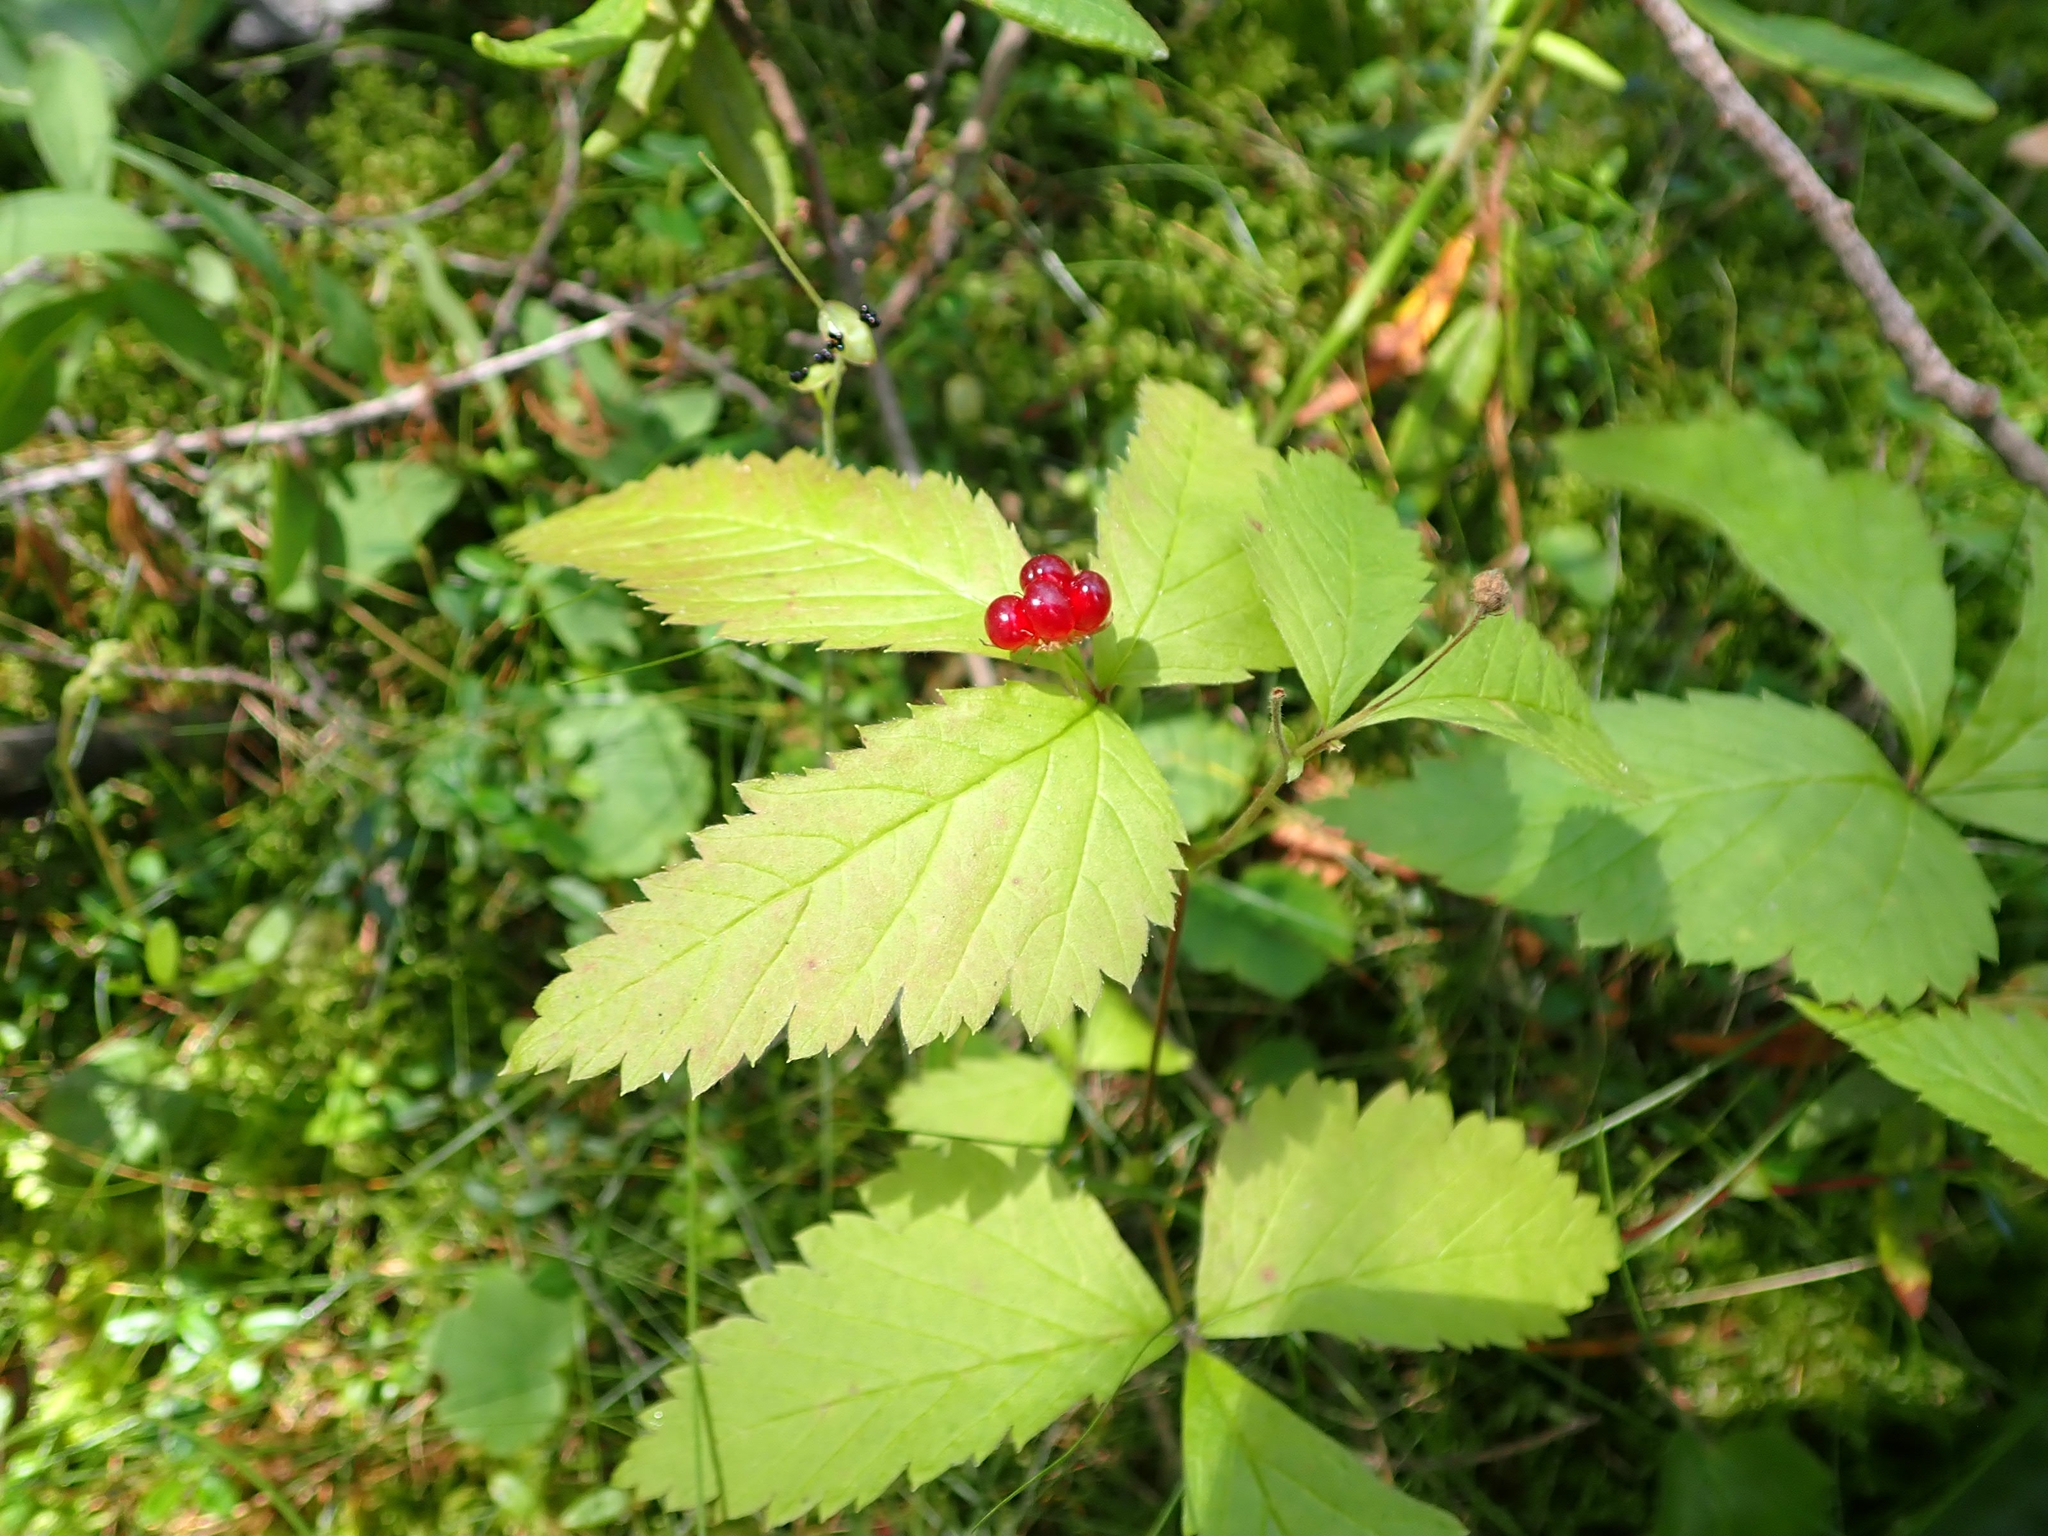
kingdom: Plantae
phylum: Tracheophyta
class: Magnoliopsida
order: Rosales
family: Rosaceae
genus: Rubus
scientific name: Rubus pubescens
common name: Dwarf raspberry
